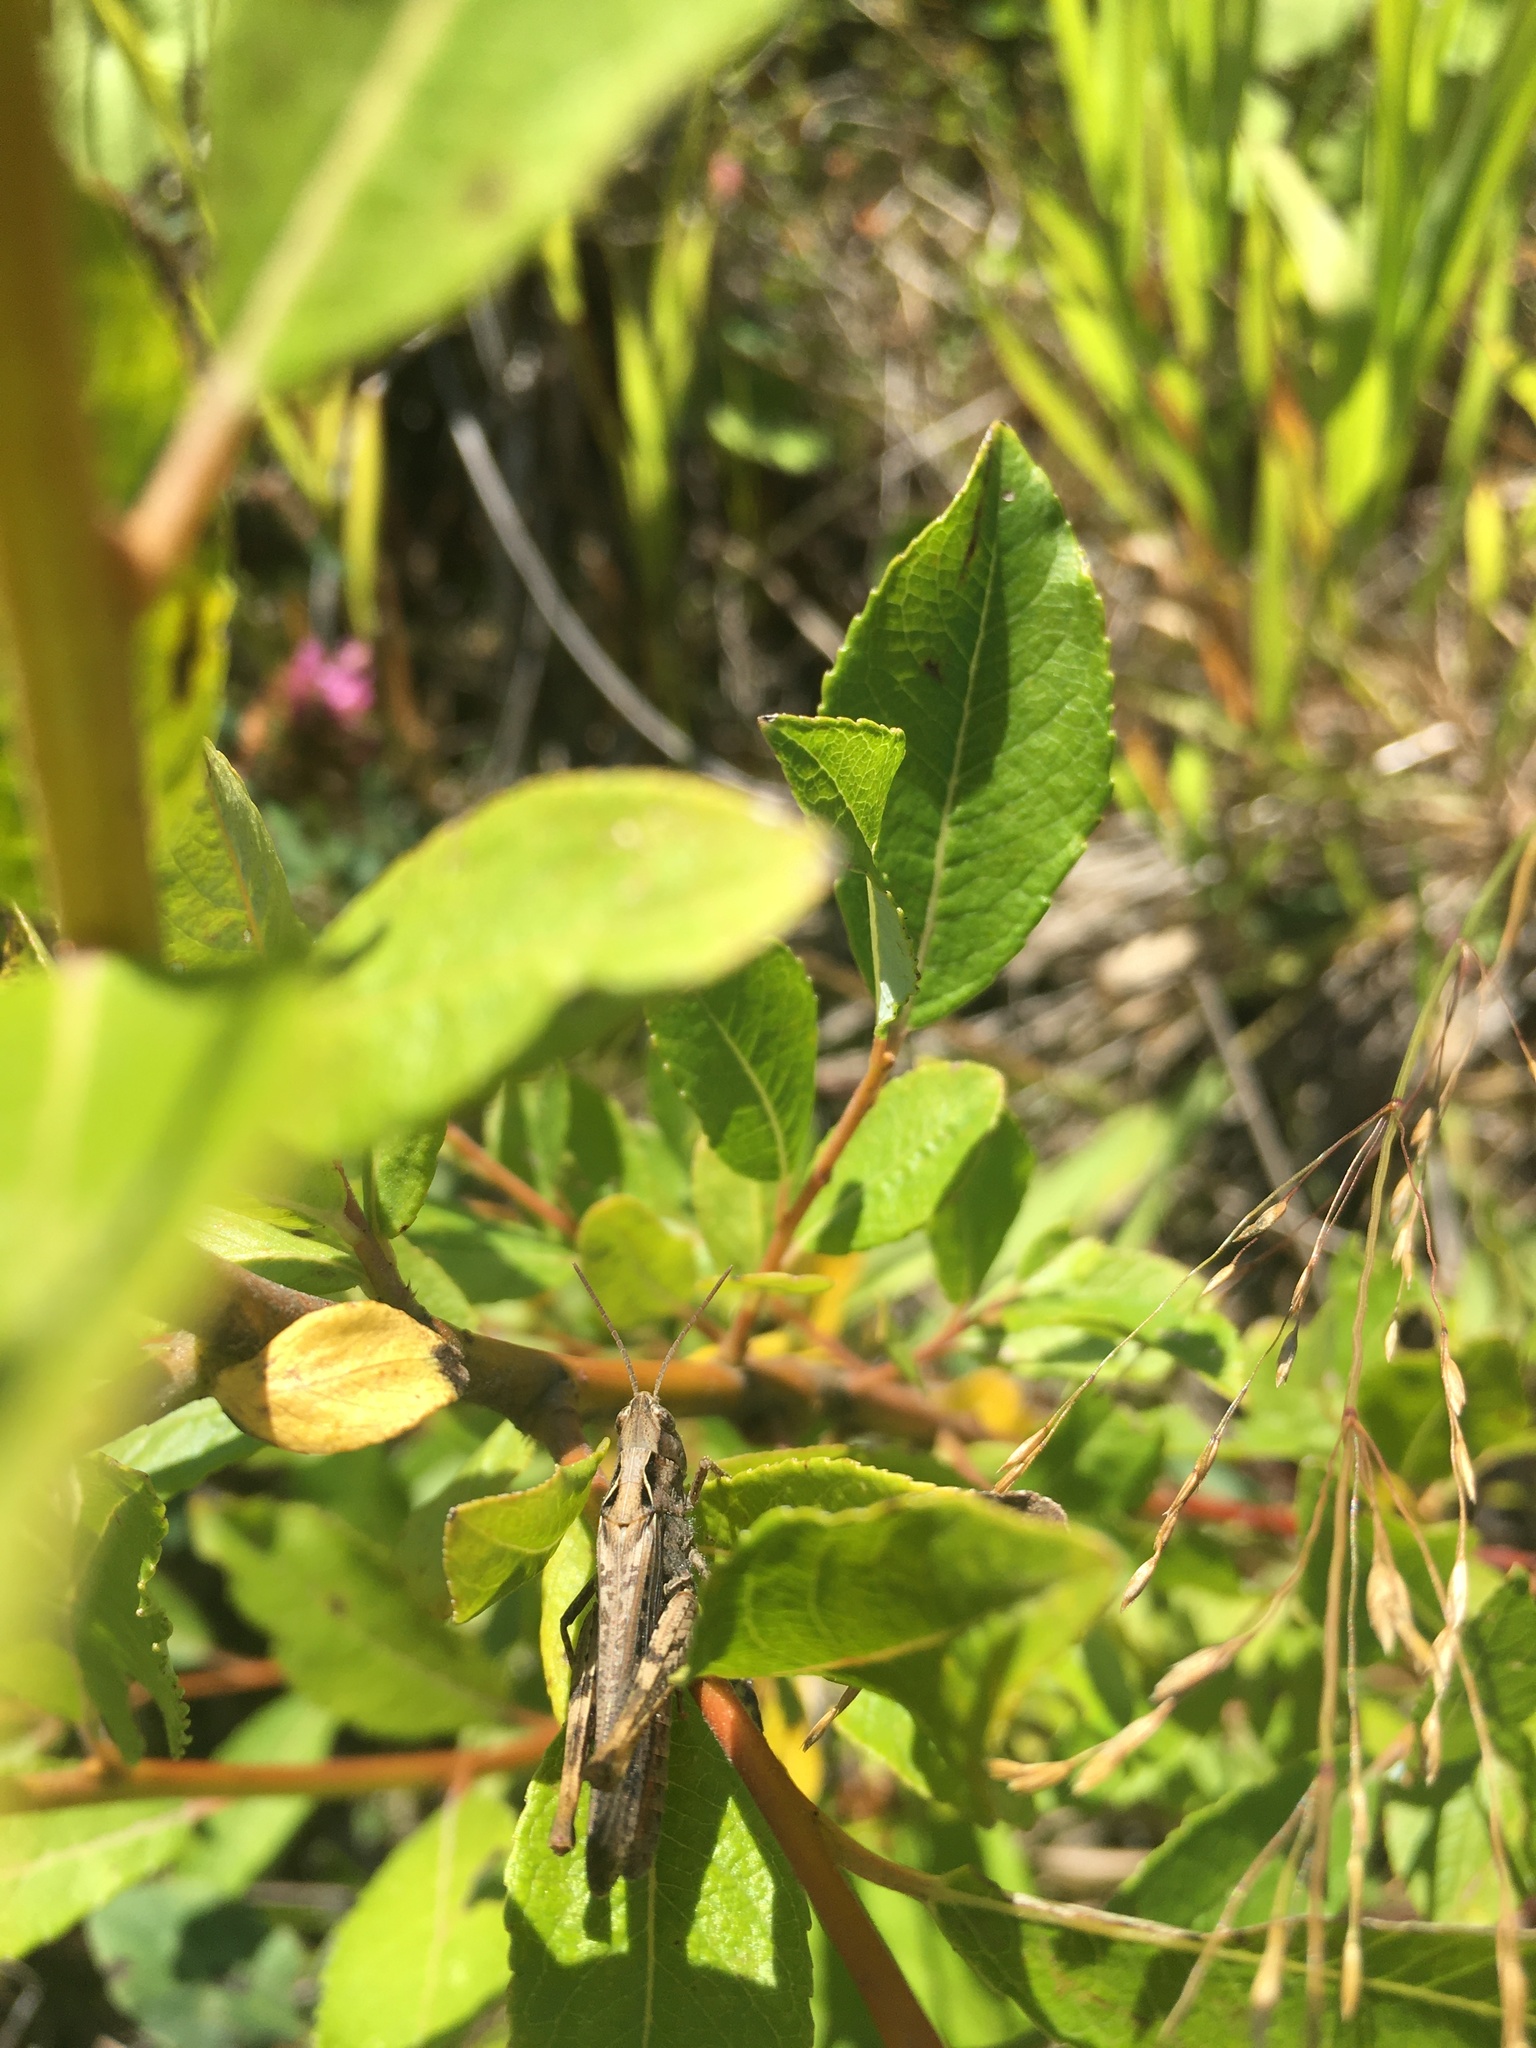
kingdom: Animalia
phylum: Arthropoda
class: Insecta
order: Orthoptera
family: Acrididae
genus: Chorthippus
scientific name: Chorthippus brunneus
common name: Field grasshopper
